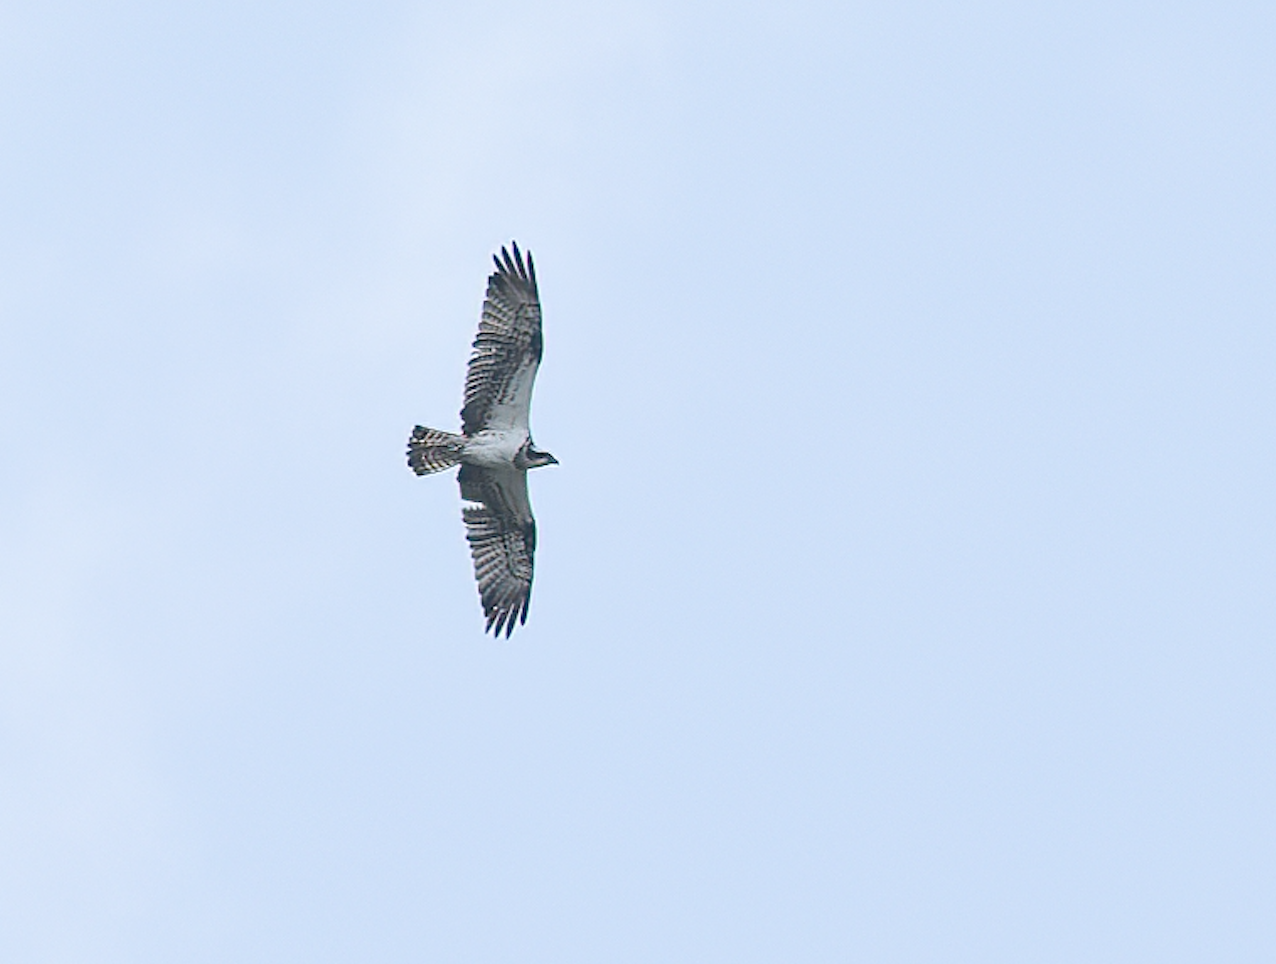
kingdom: Animalia
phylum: Chordata
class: Aves
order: Accipitriformes
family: Pandionidae
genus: Pandion
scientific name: Pandion haliaetus
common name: Osprey
